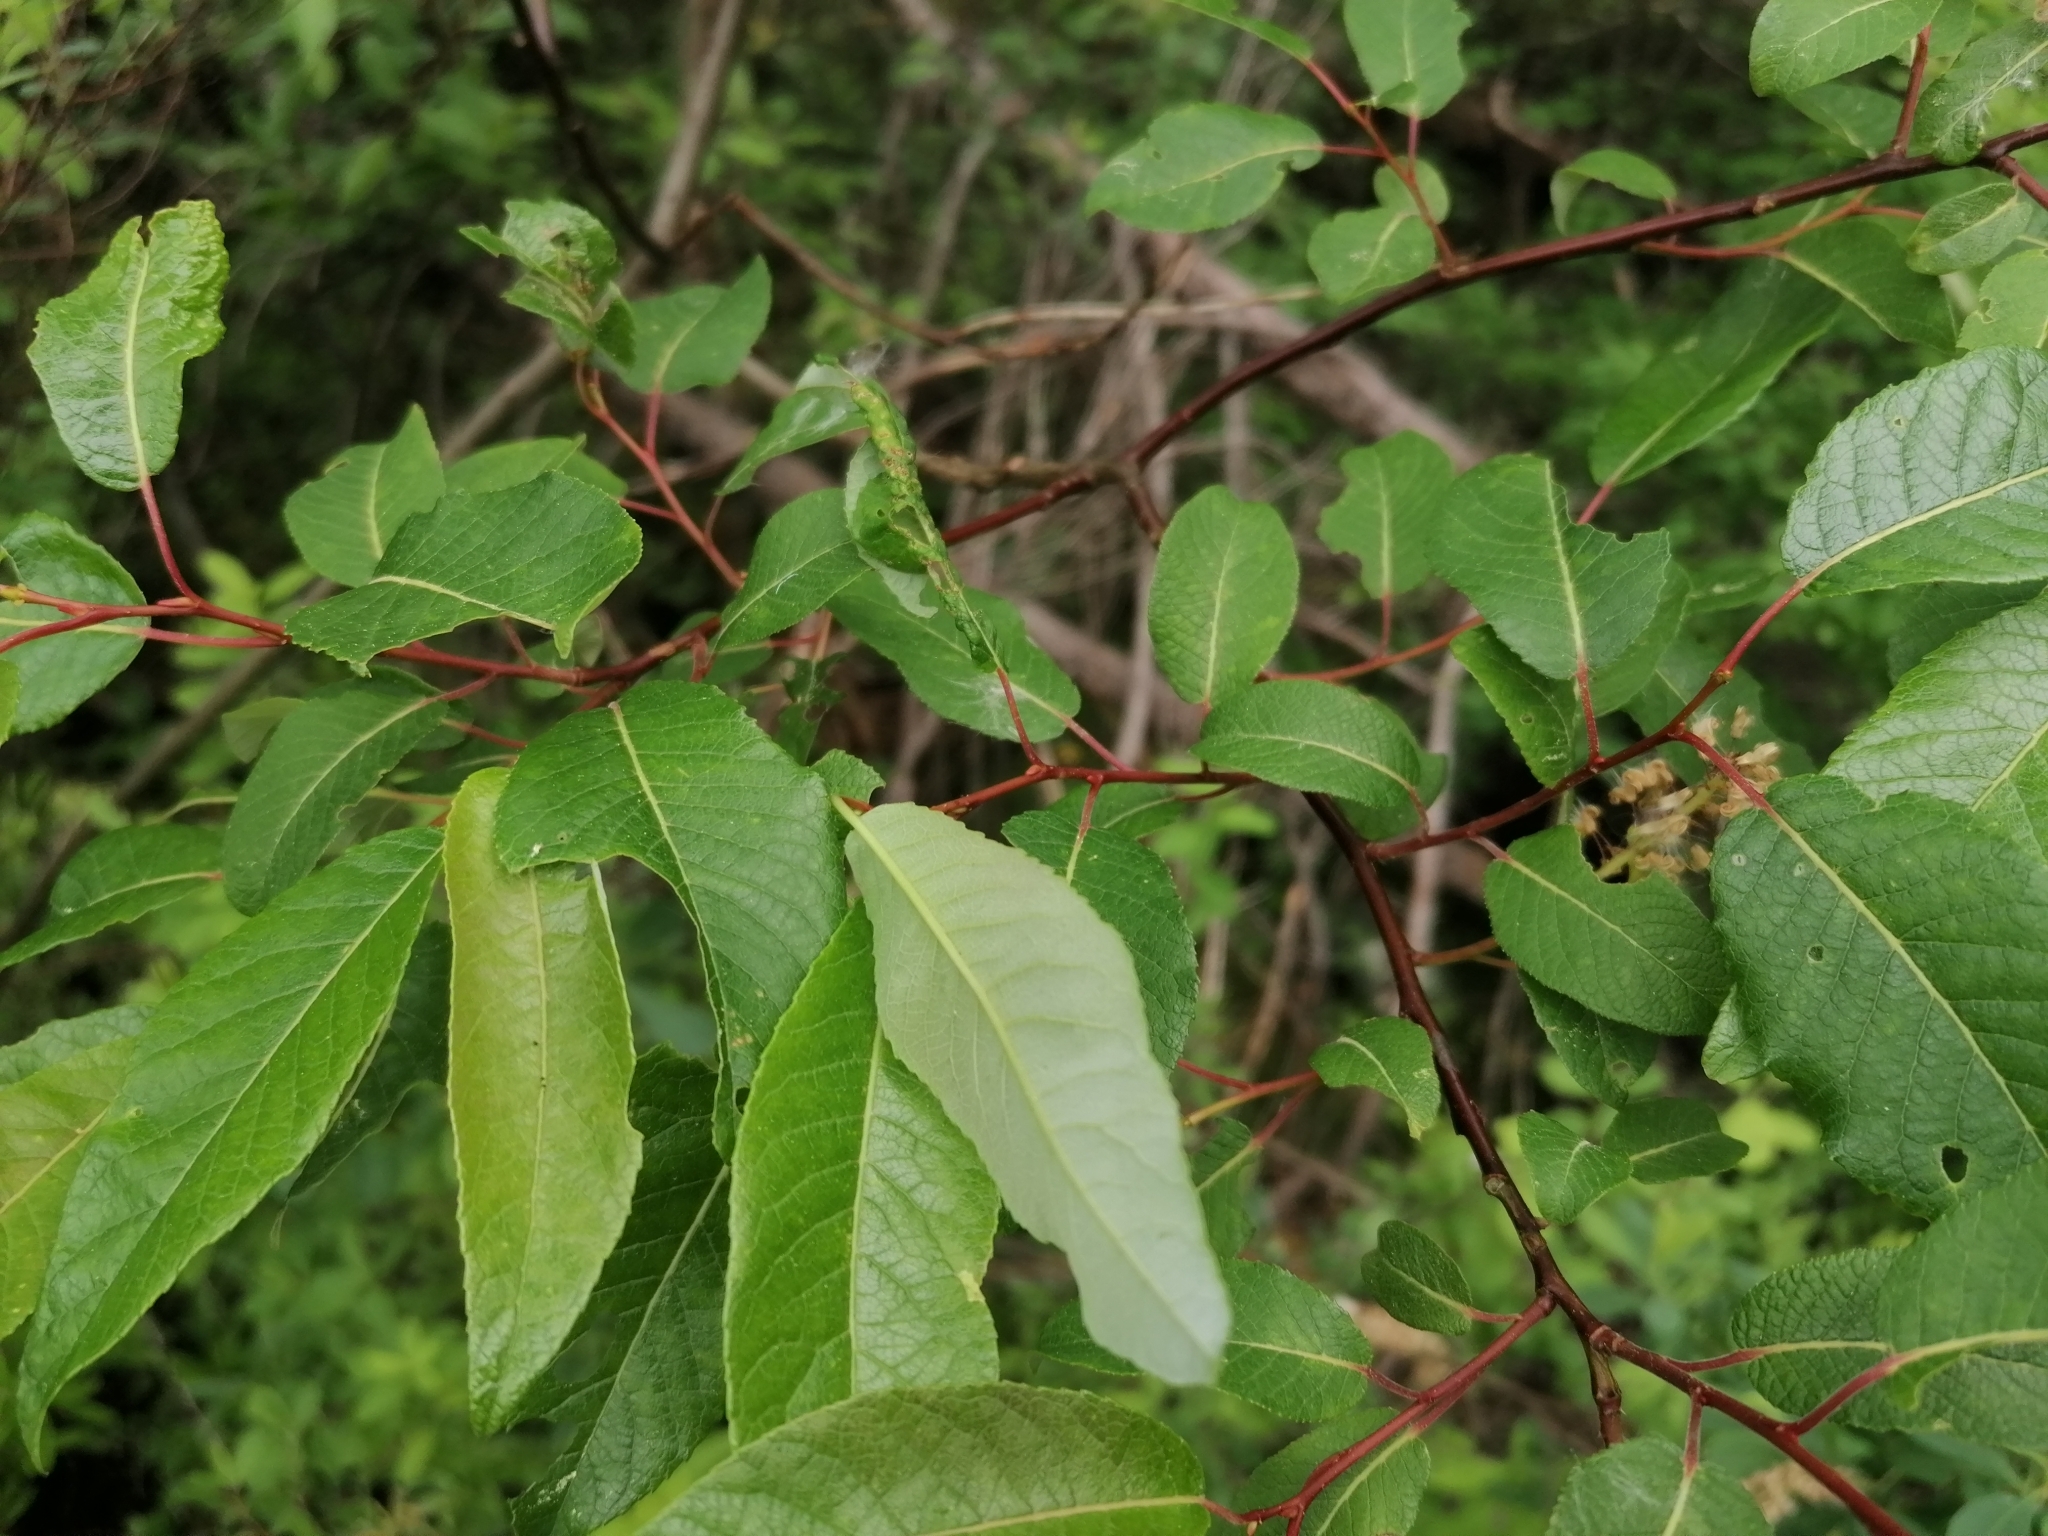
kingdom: Plantae
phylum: Tracheophyta
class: Magnoliopsida
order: Malpighiales
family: Salicaceae
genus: Salix
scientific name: Salix pyrifolia
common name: Balsam willow
